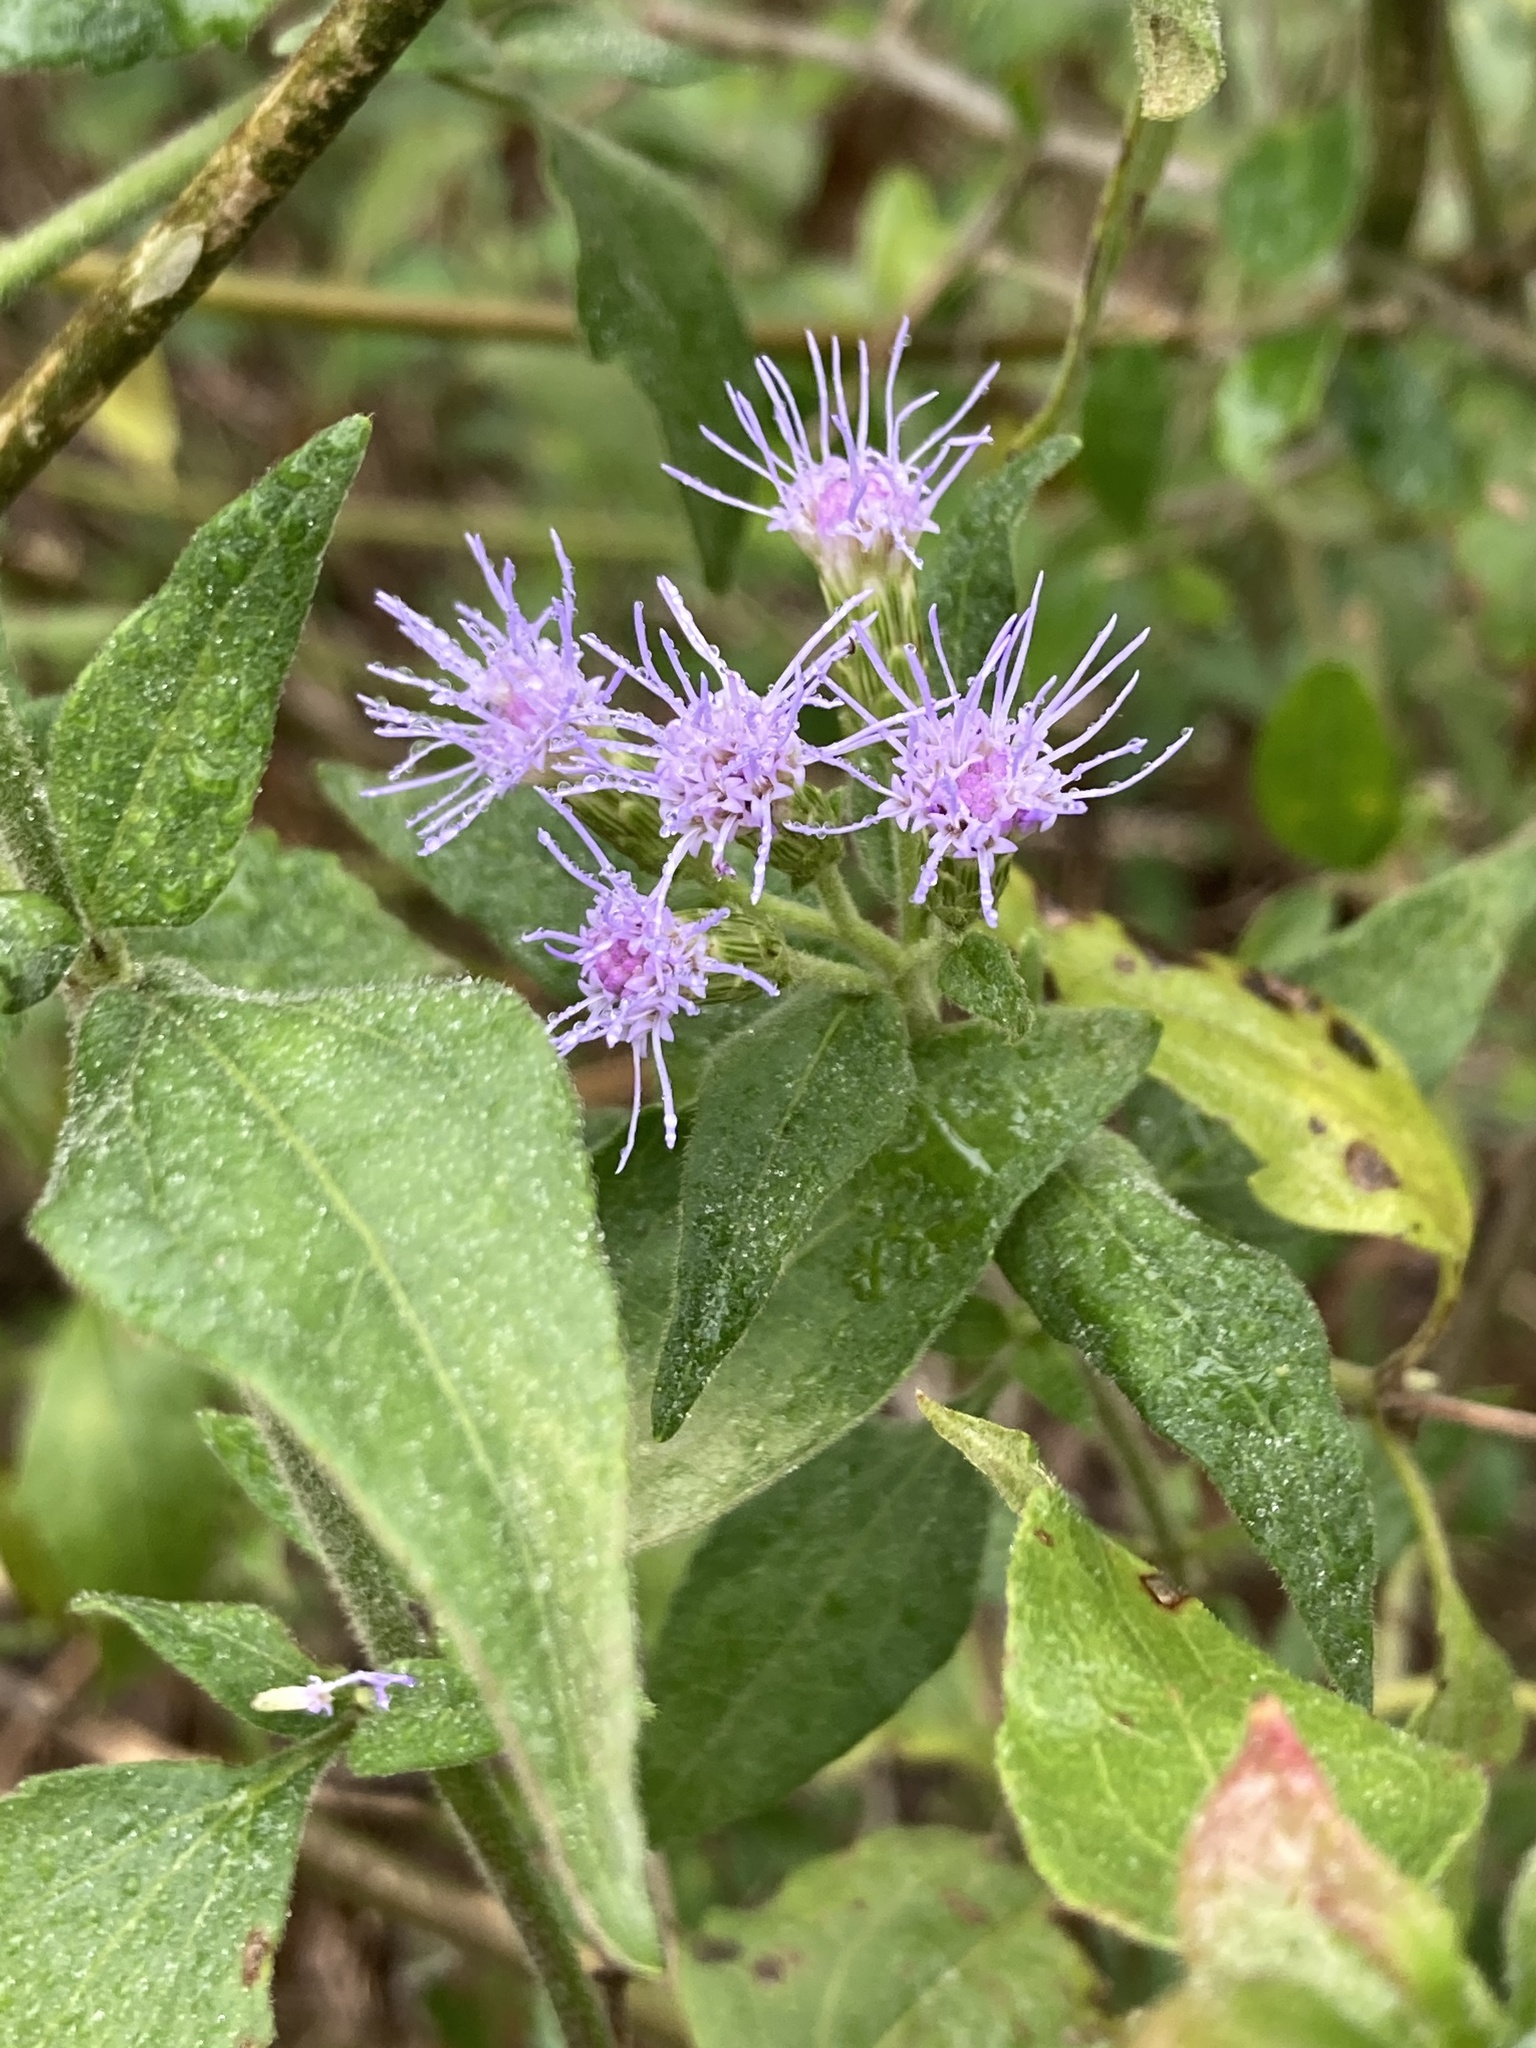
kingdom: Plantae
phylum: Tracheophyta
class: Magnoliopsida
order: Asterales
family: Asteraceae
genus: Chromolaena
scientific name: Chromolaena odorata
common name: Siamweed
